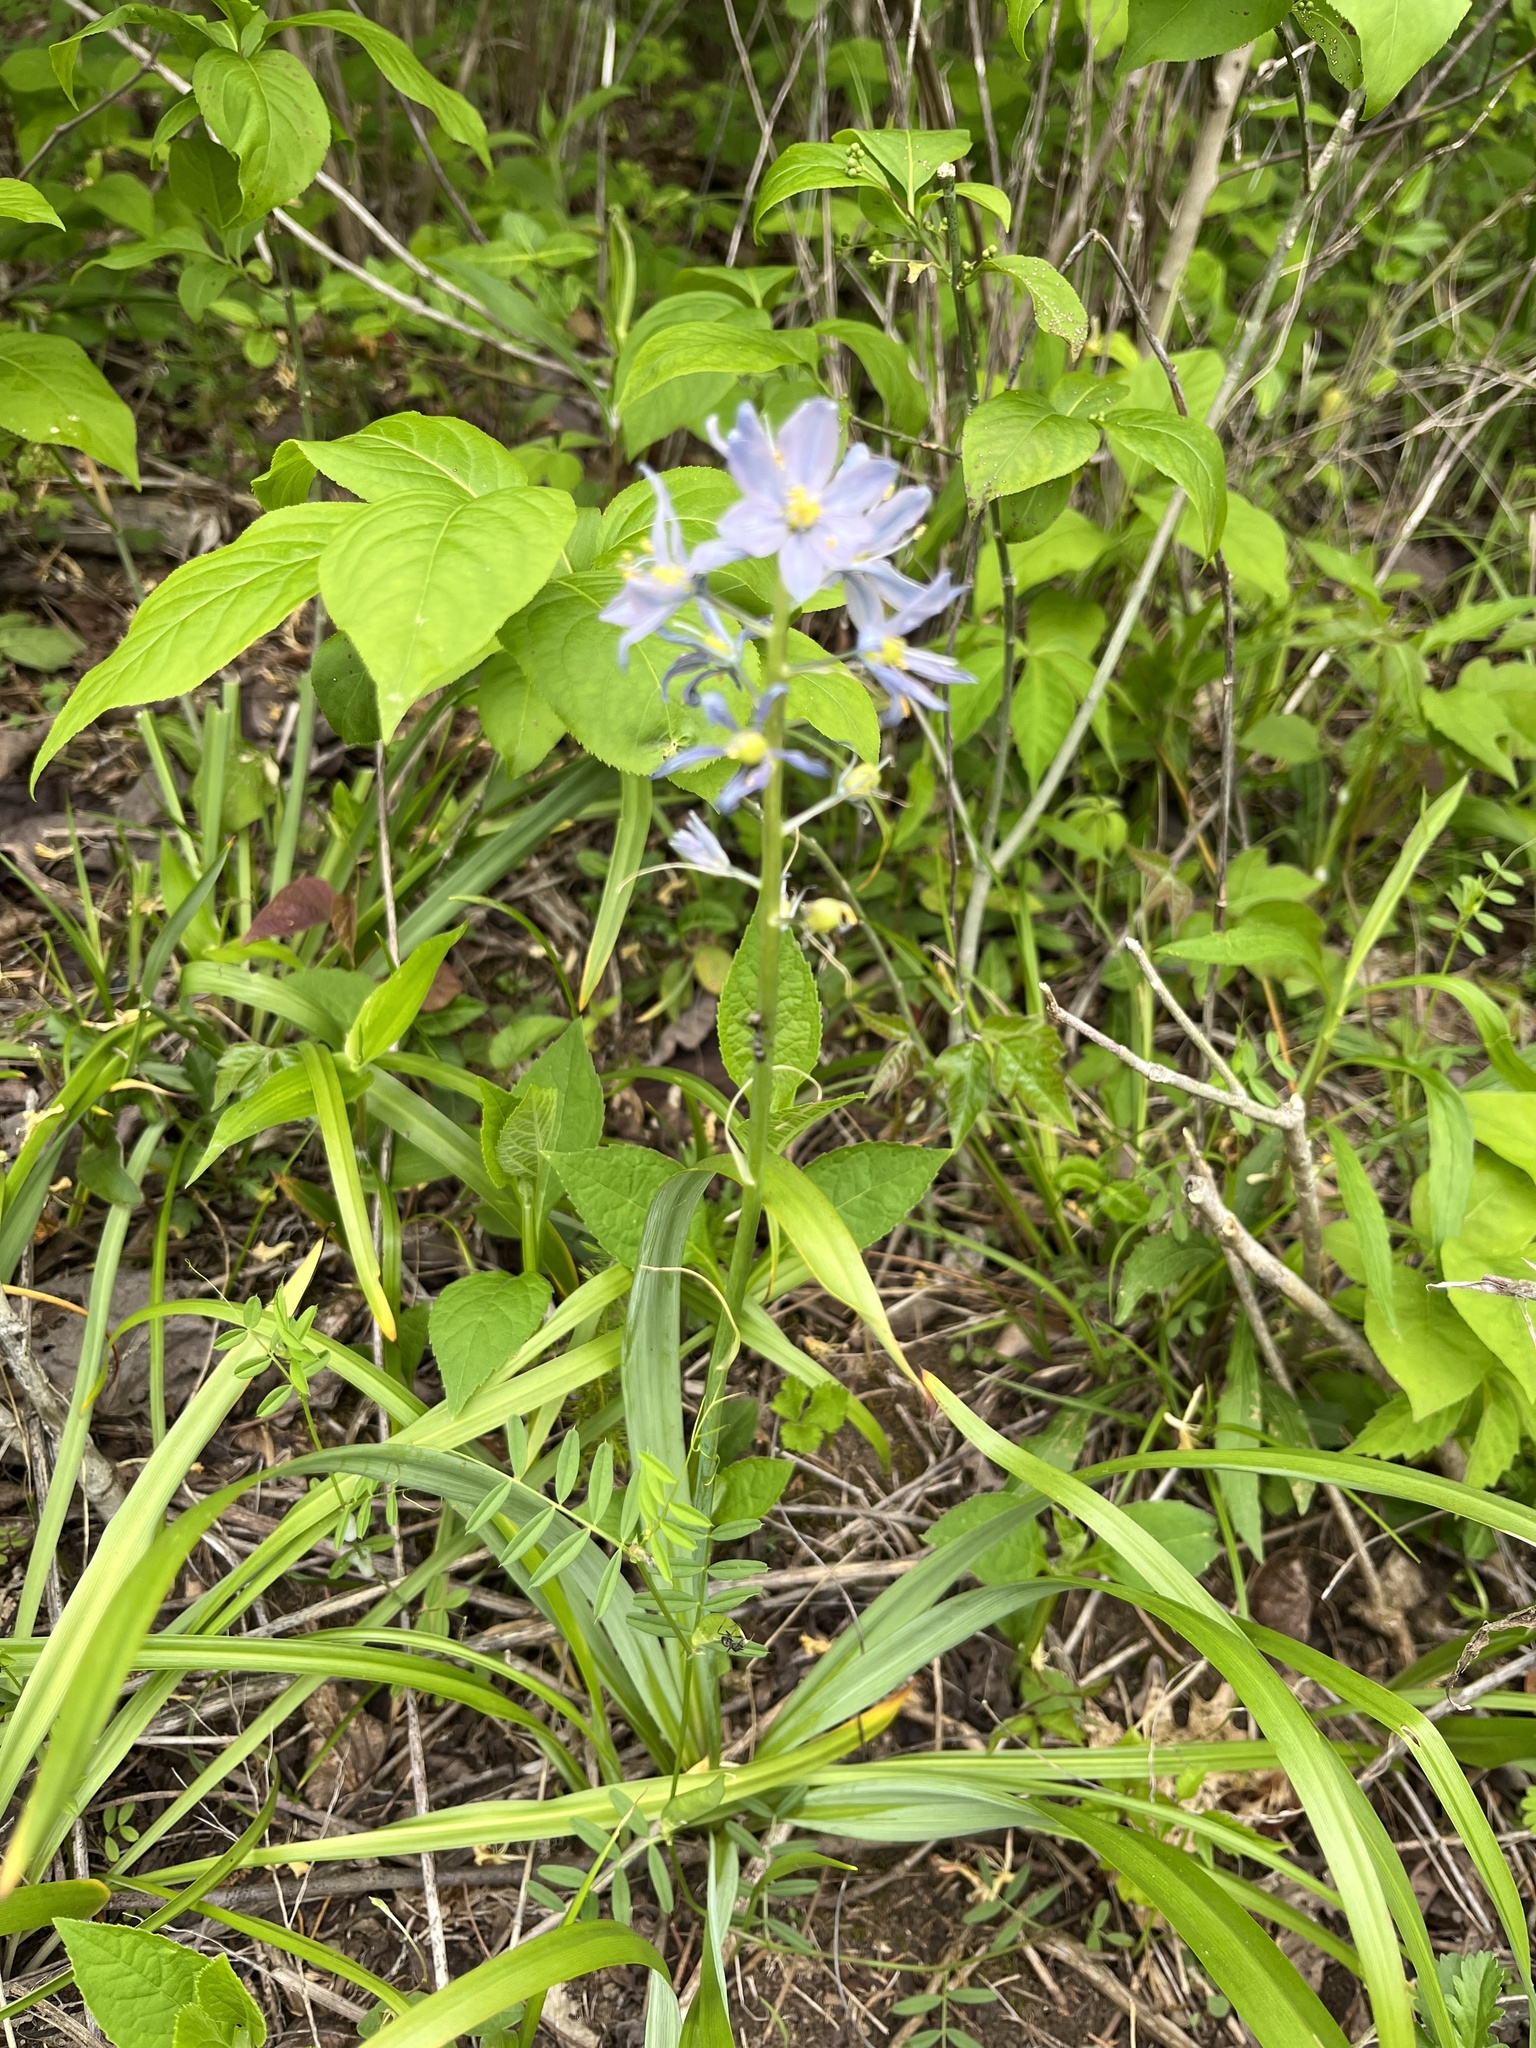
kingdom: Plantae
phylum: Tracheophyta
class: Liliopsida
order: Asparagales
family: Asparagaceae
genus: Camassia
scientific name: Camassia scilloides
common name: Wild hyacinth
